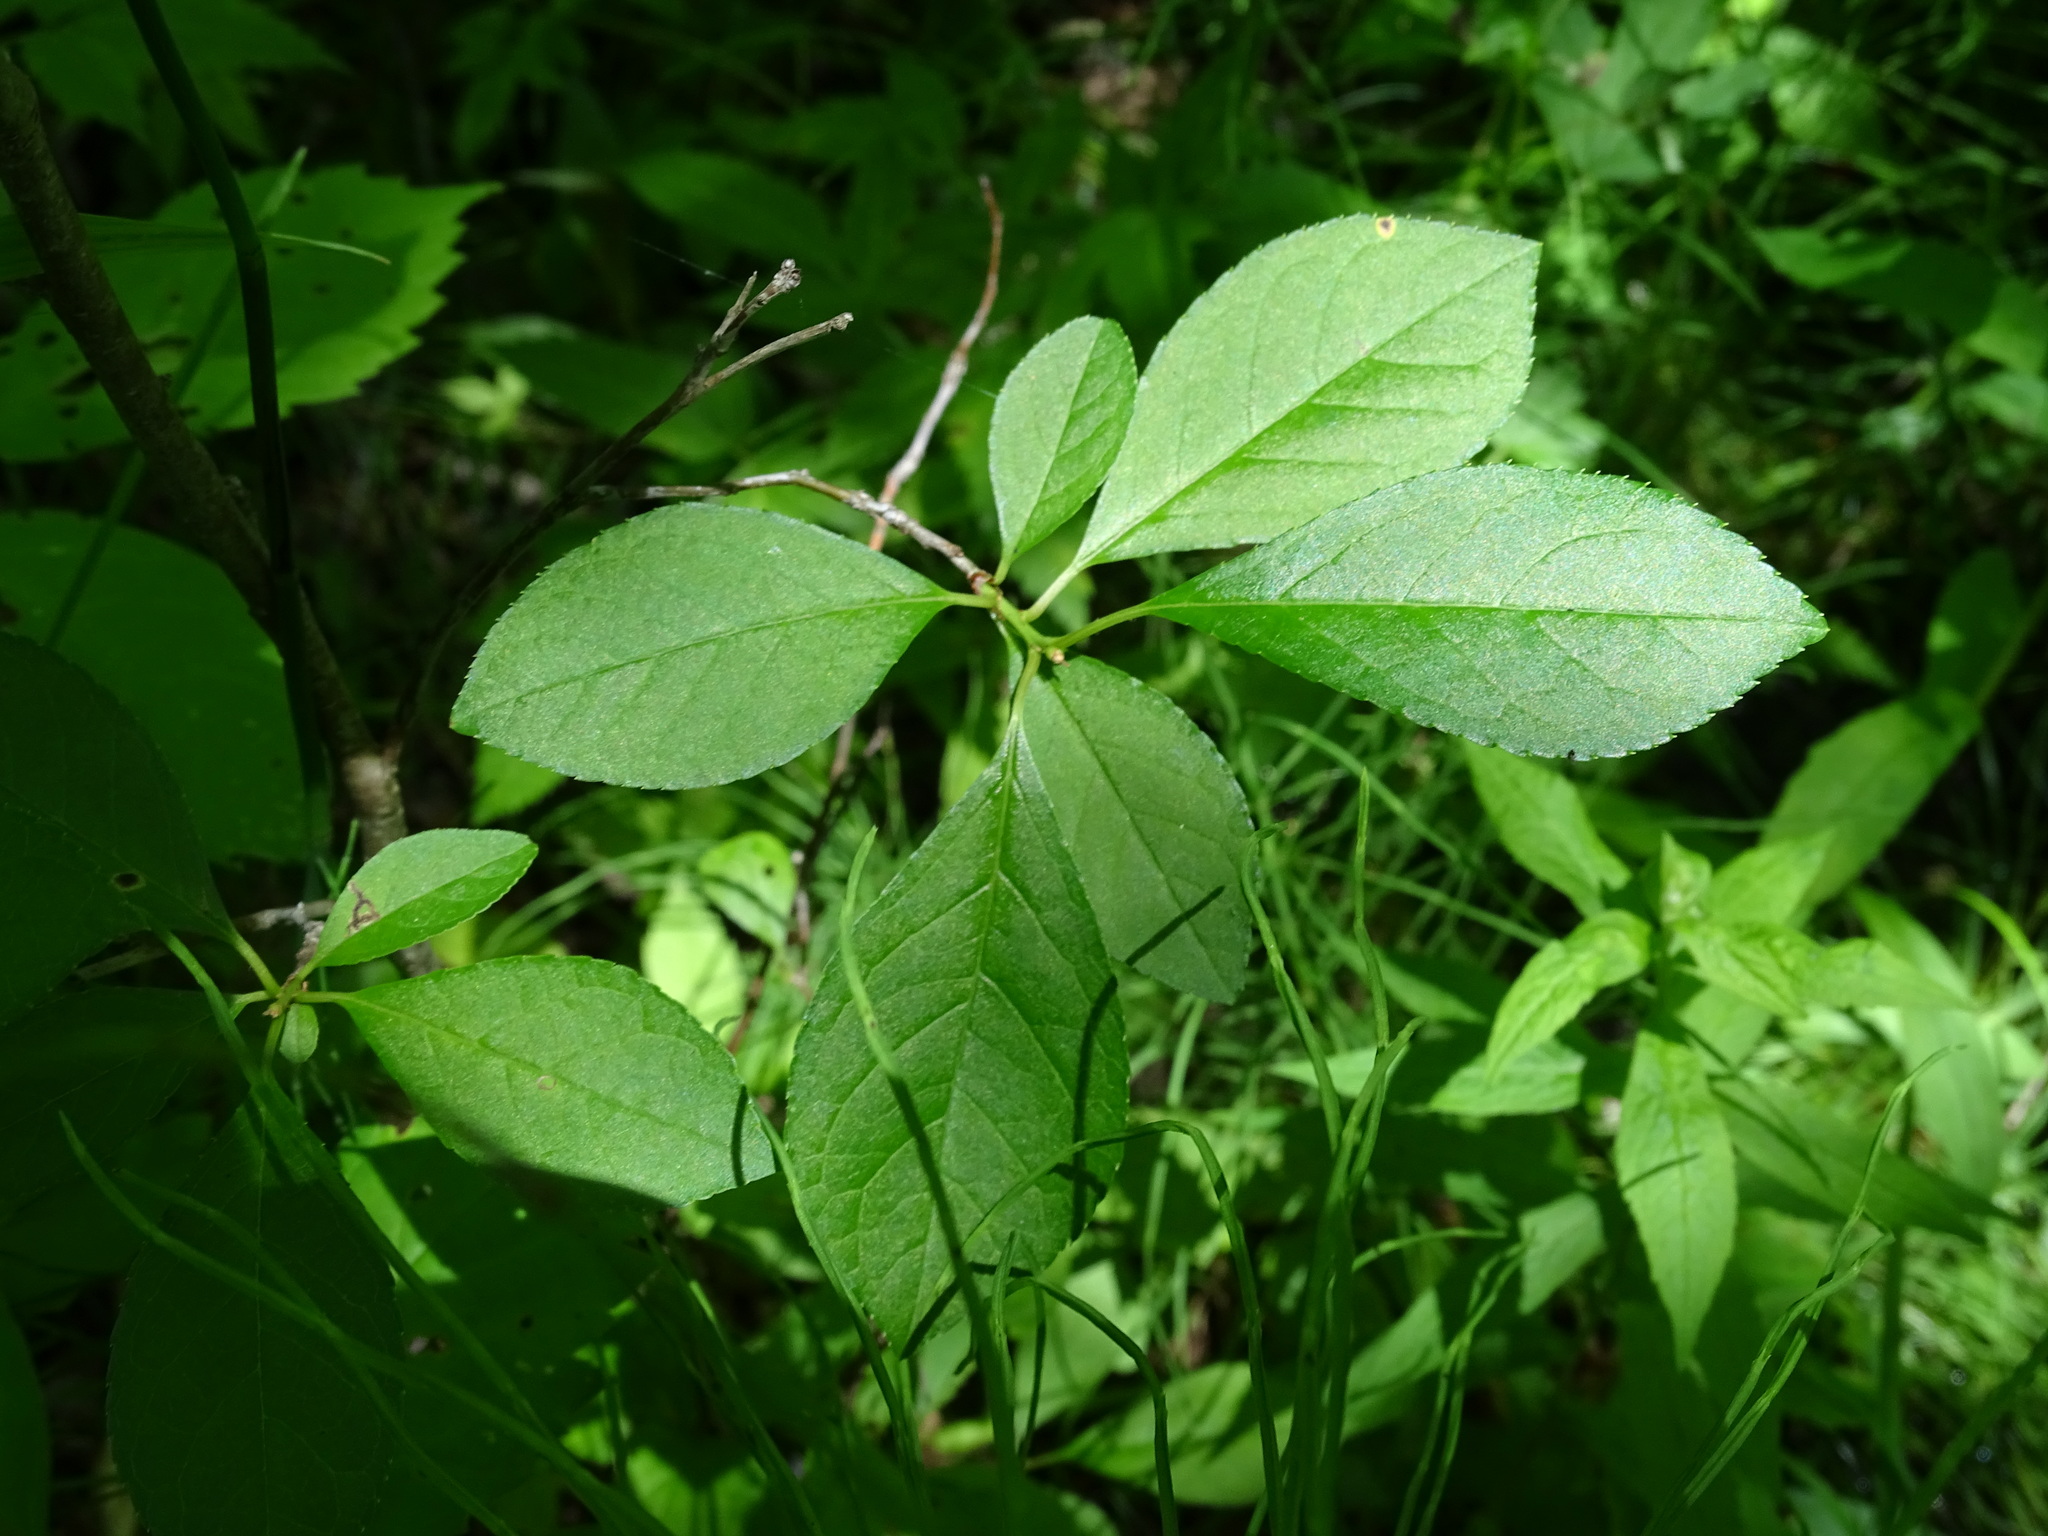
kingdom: Plantae
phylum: Tracheophyta
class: Magnoliopsida
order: Aquifoliales
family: Aquifoliaceae
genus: Ilex
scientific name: Ilex verticillata
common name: Virginia winterberry
